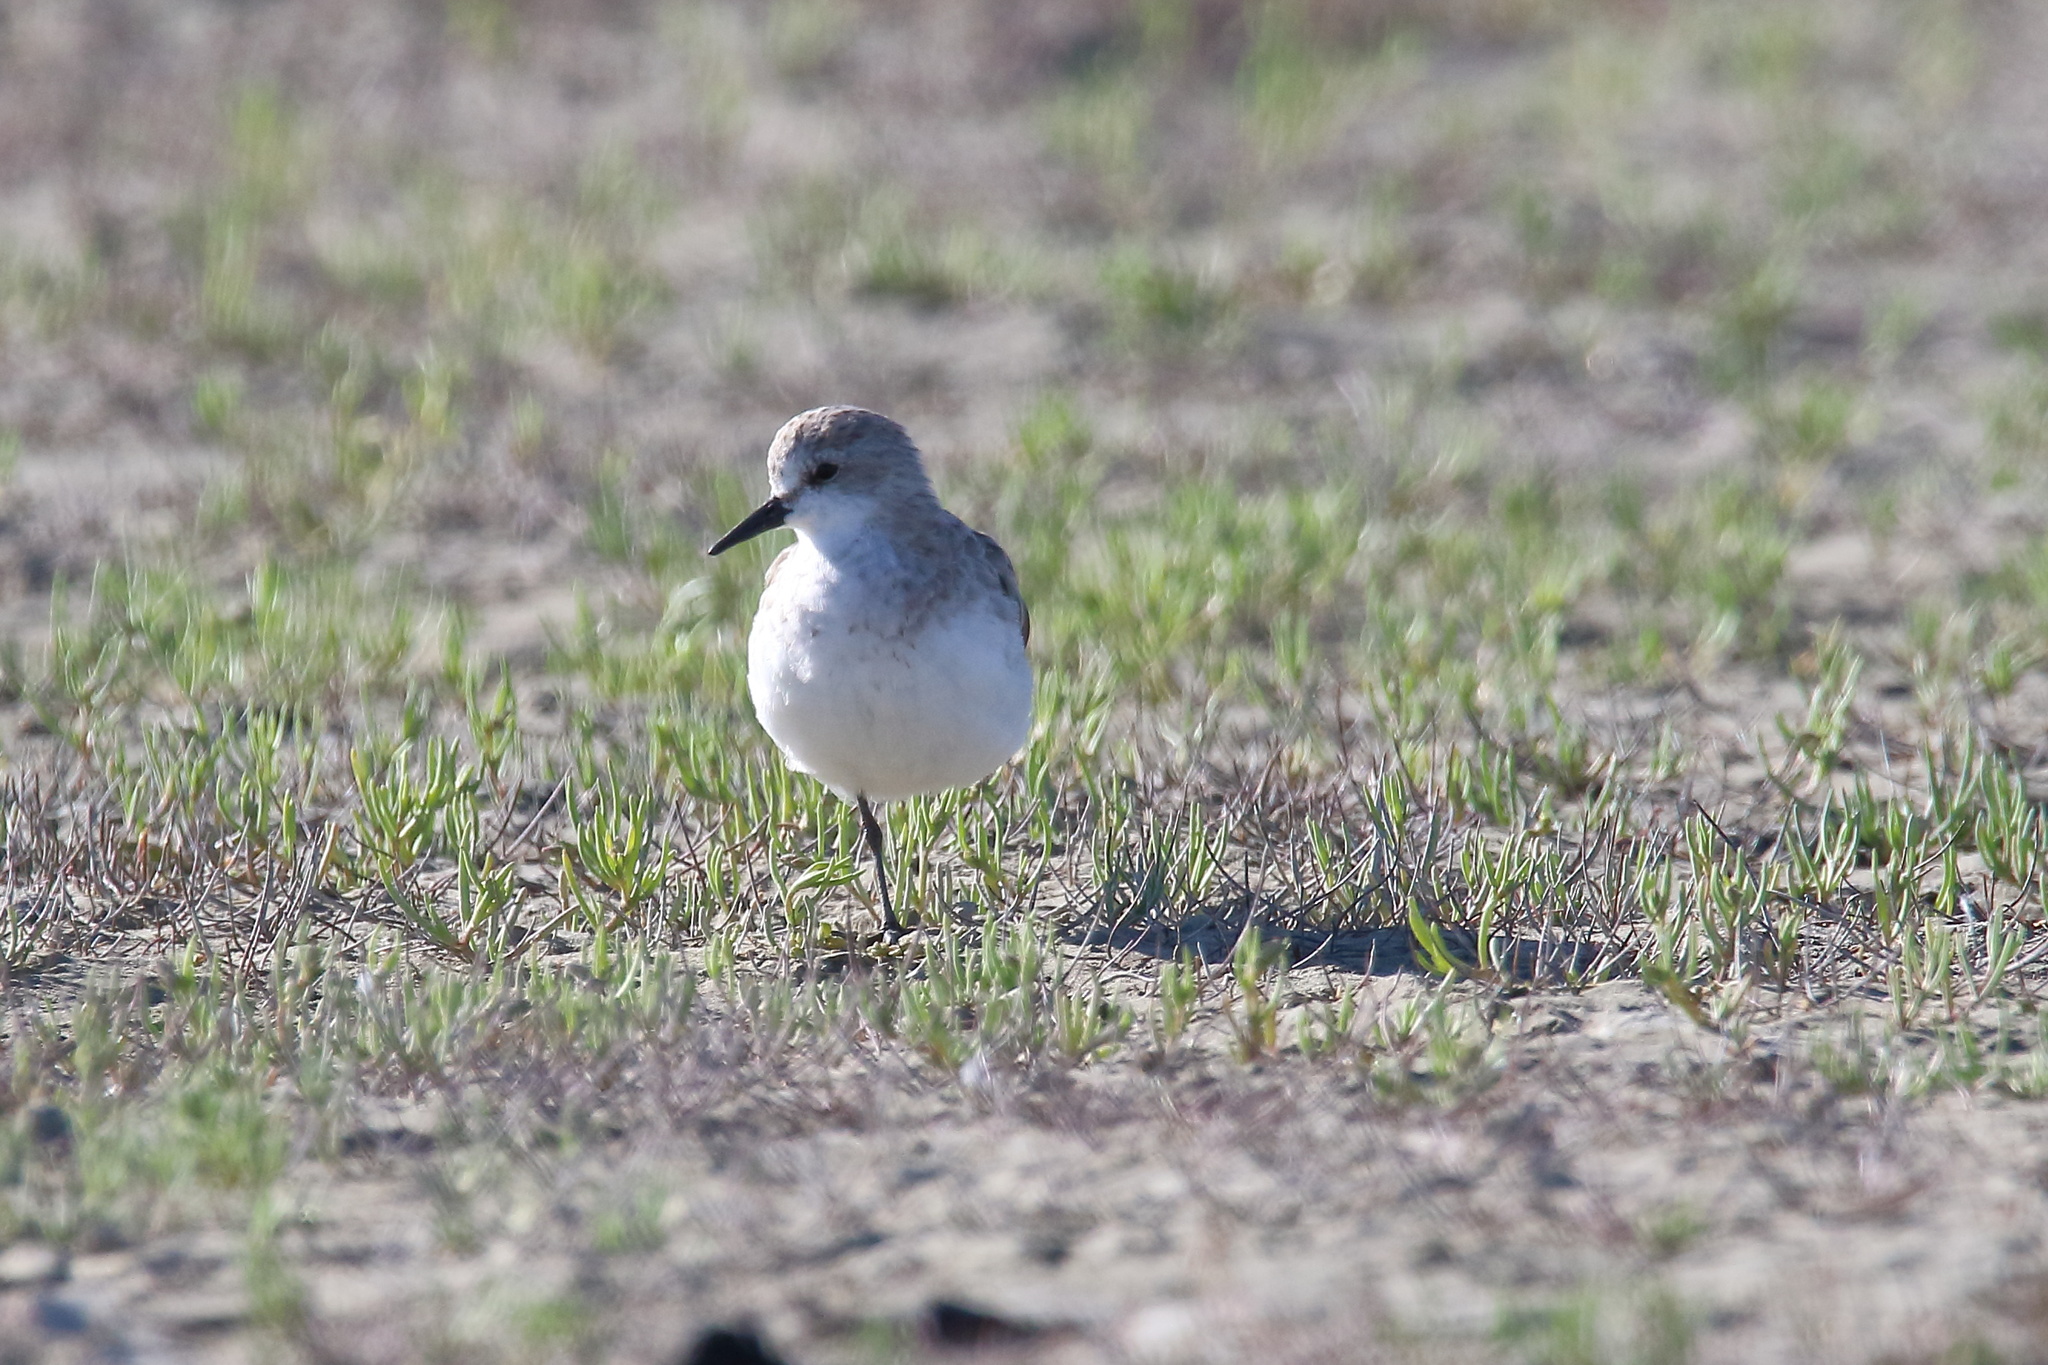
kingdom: Animalia
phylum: Chordata
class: Aves
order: Charadriiformes
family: Scolopacidae
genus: Calidris
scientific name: Calidris ruficollis
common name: Red-necked stint
